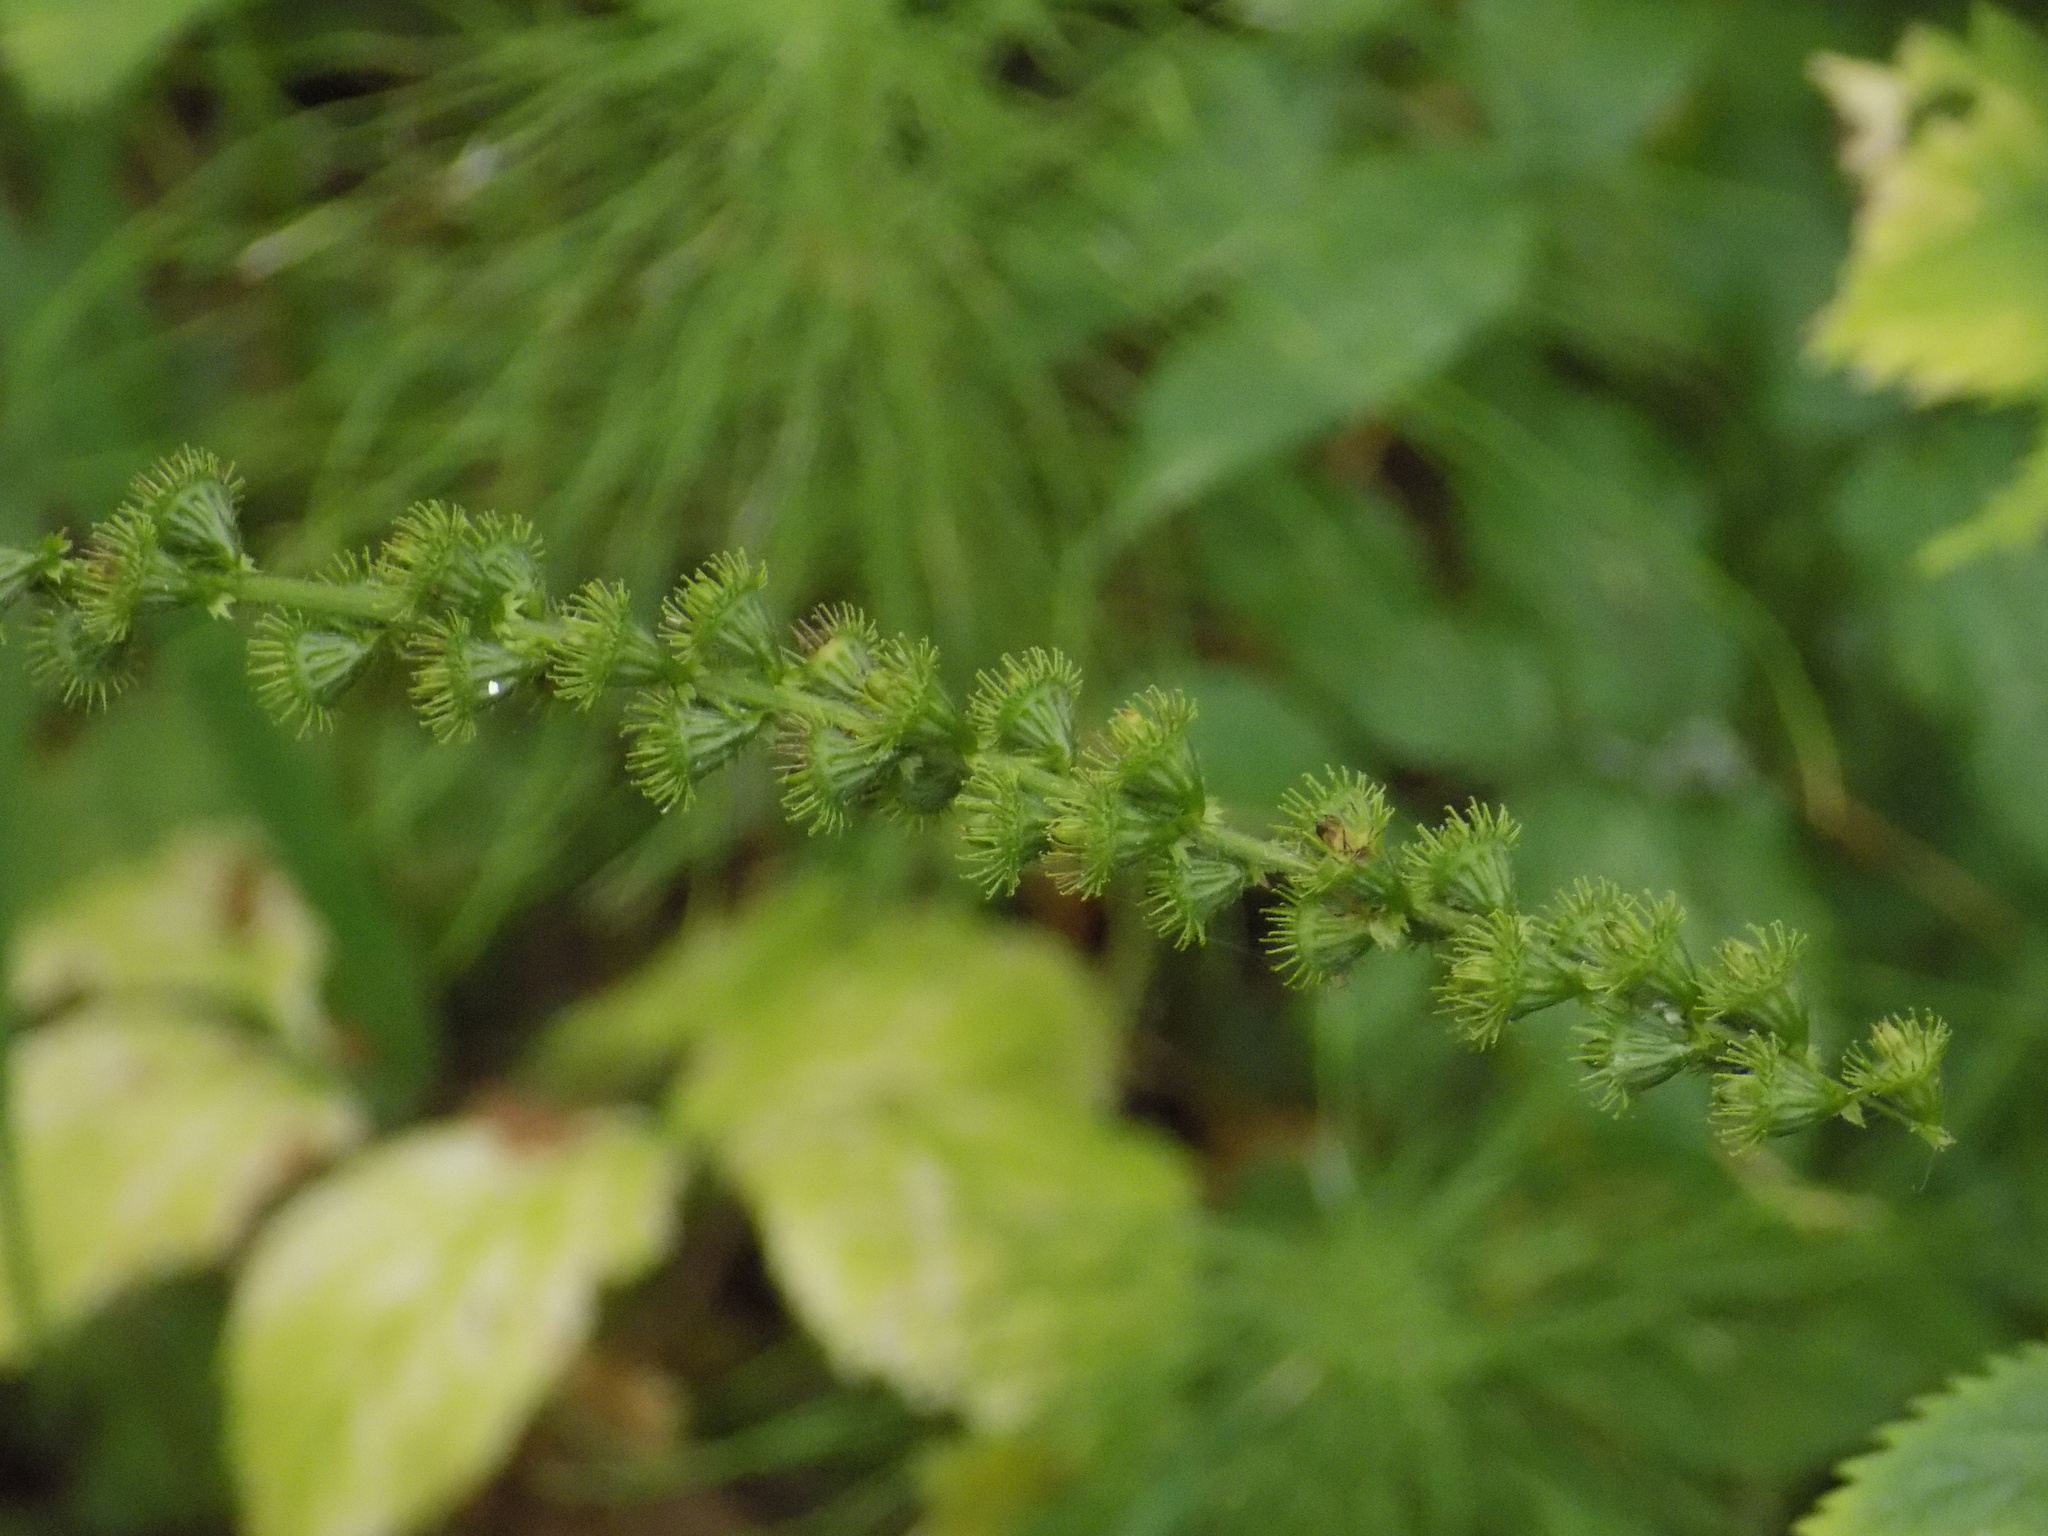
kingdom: Plantae
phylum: Tracheophyta
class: Magnoliopsida
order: Rosales
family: Rosaceae
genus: Agrimonia
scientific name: Agrimonia pilosa
